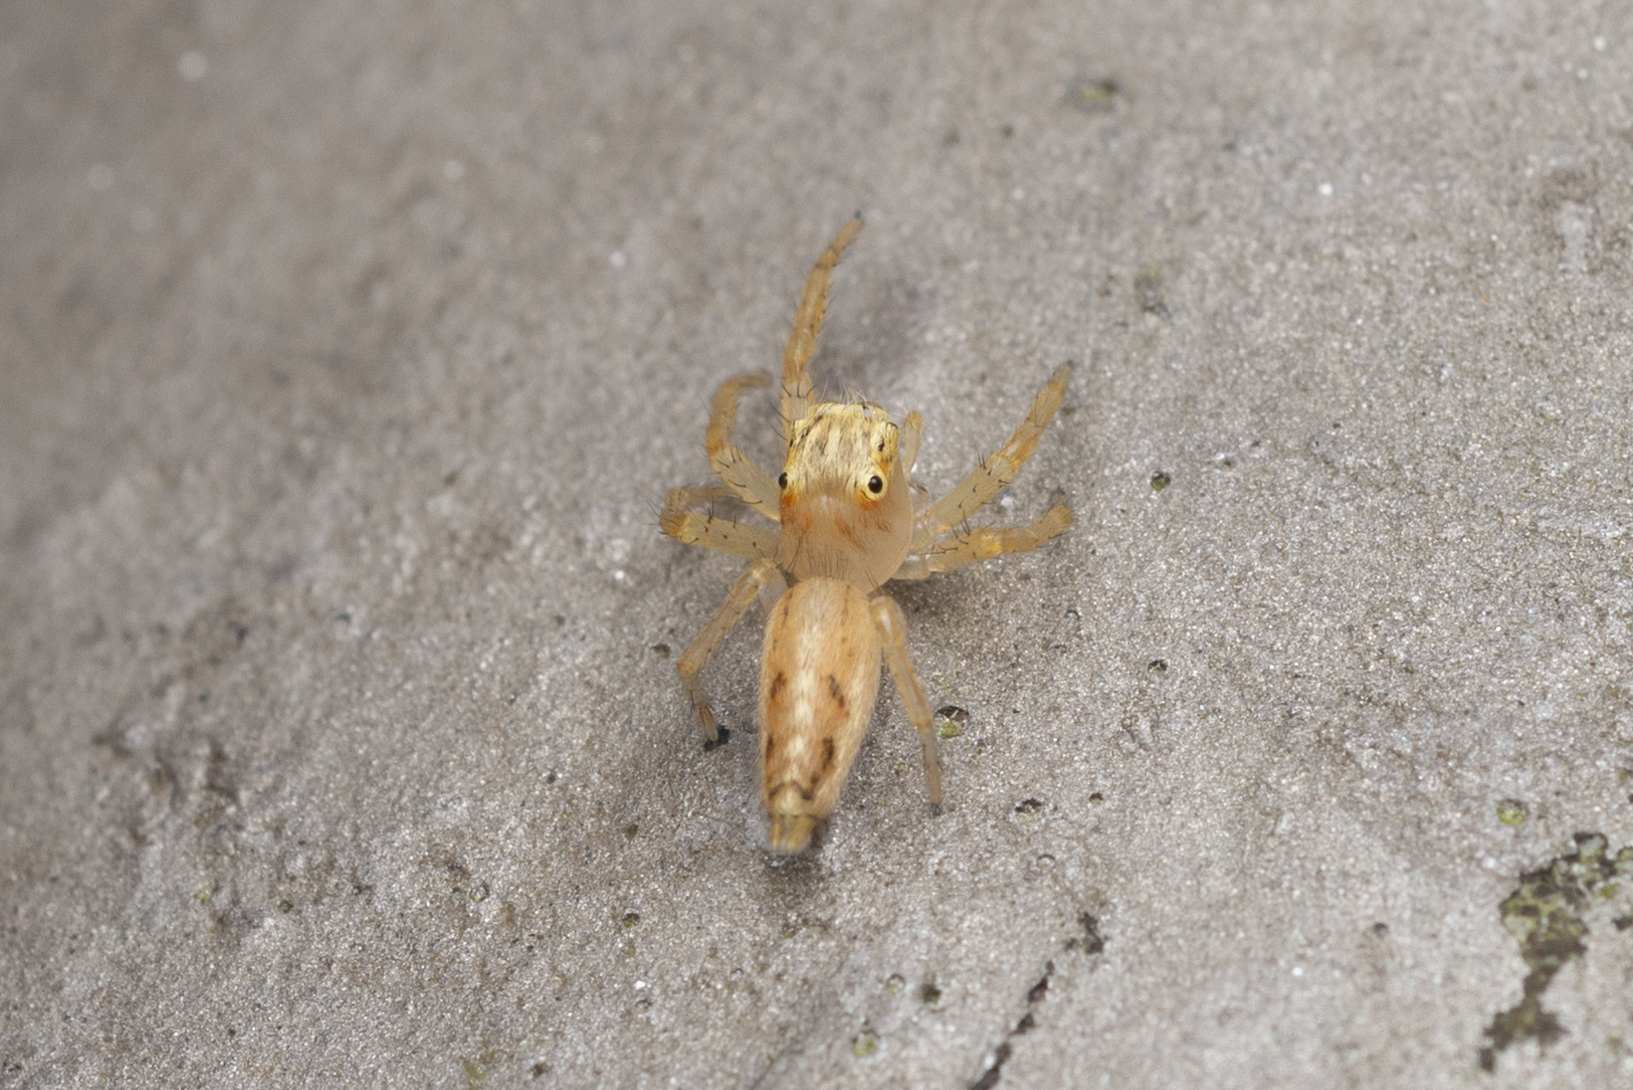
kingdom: Animalia
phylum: Arthropoda
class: Arachnida
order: Araneae
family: Salticidae
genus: Telamonia
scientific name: Telamonia caprina
